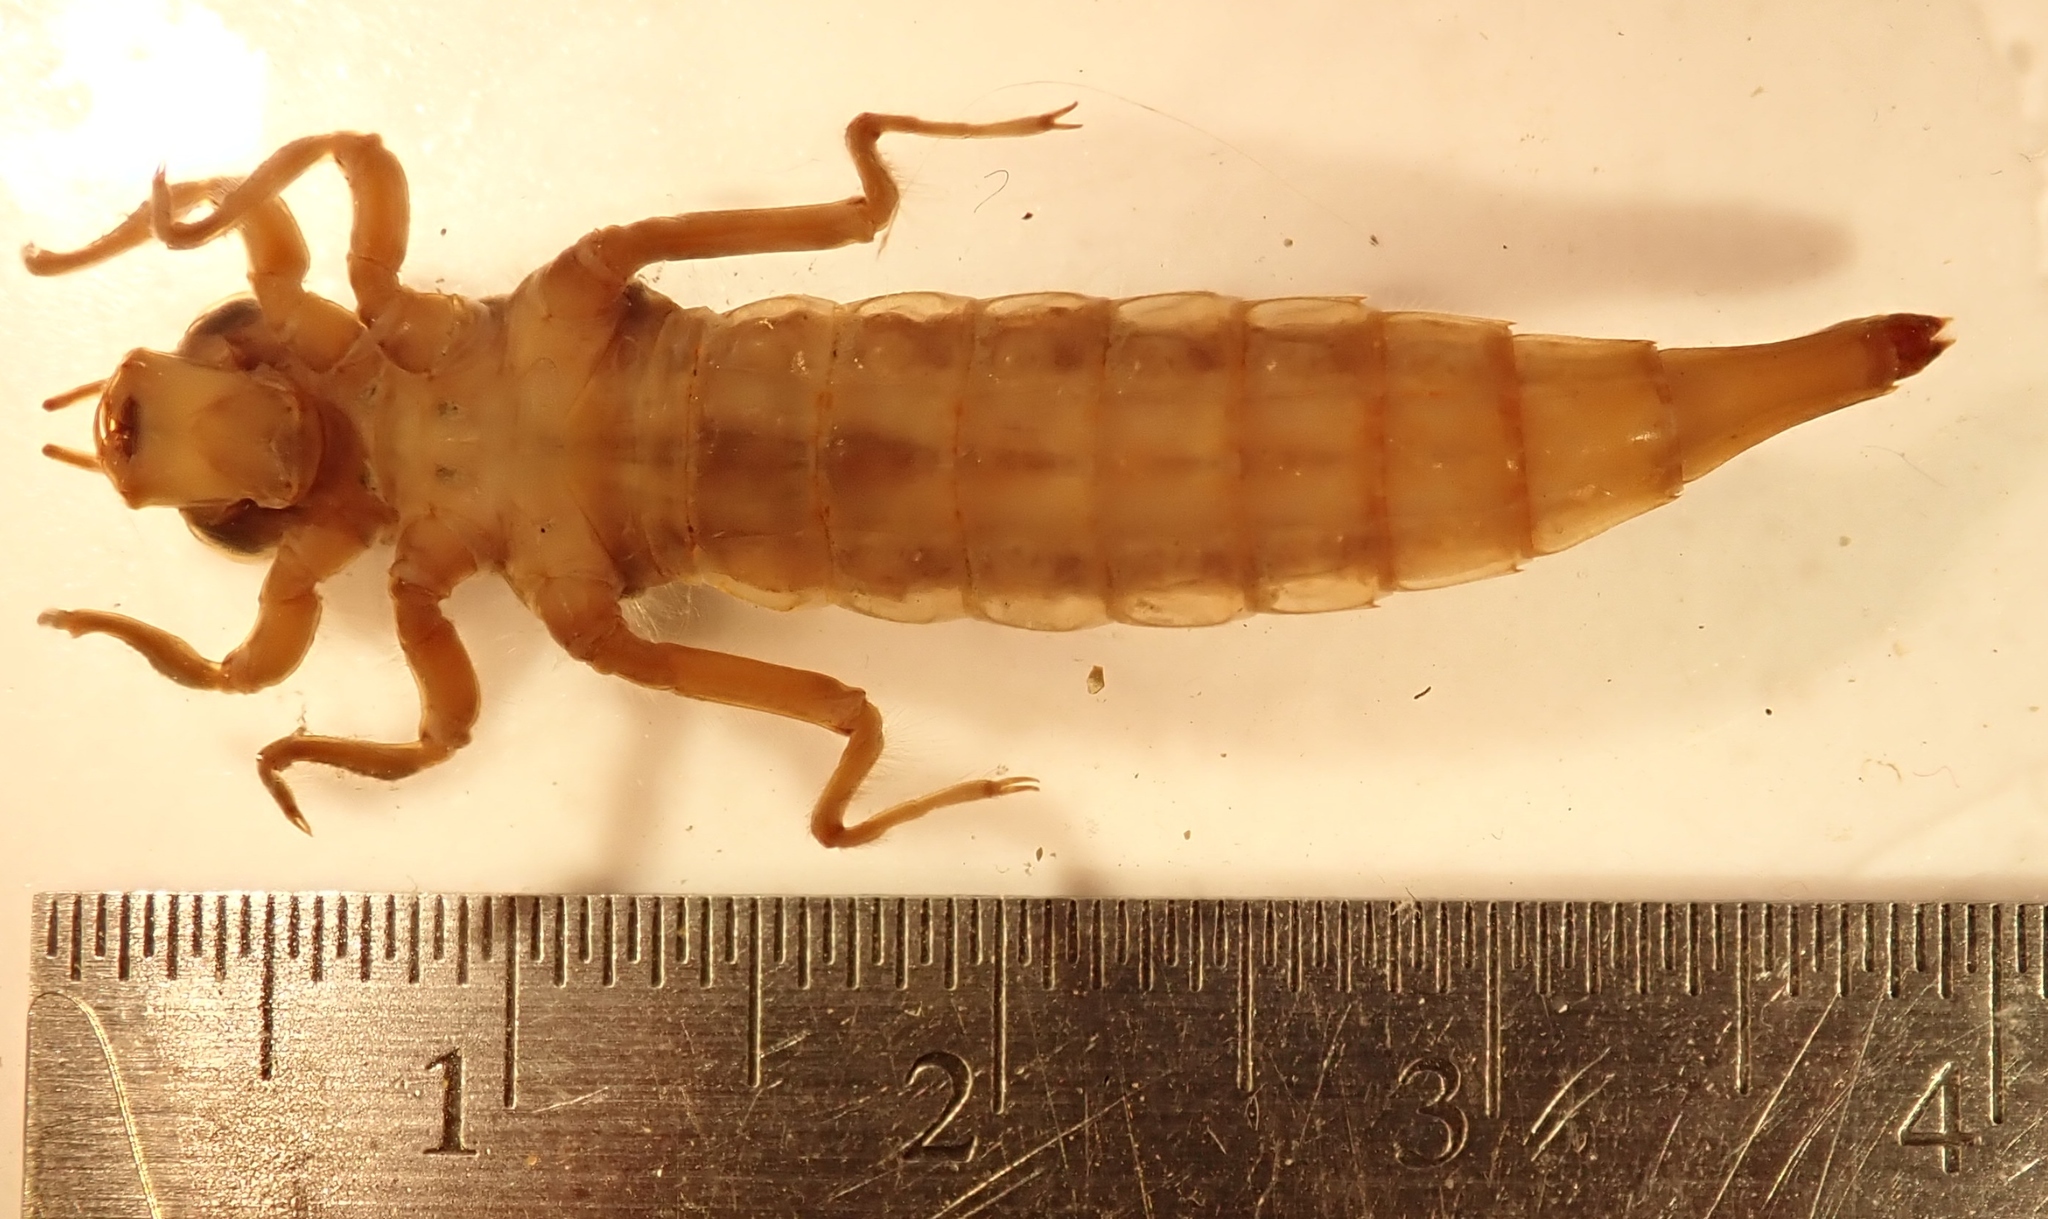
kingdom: Animalia
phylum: Arthropoda
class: Insecta
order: Odonata
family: Gomphidae
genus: Stylurus
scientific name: Stylurus spiniceps
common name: Arrow clubtail
